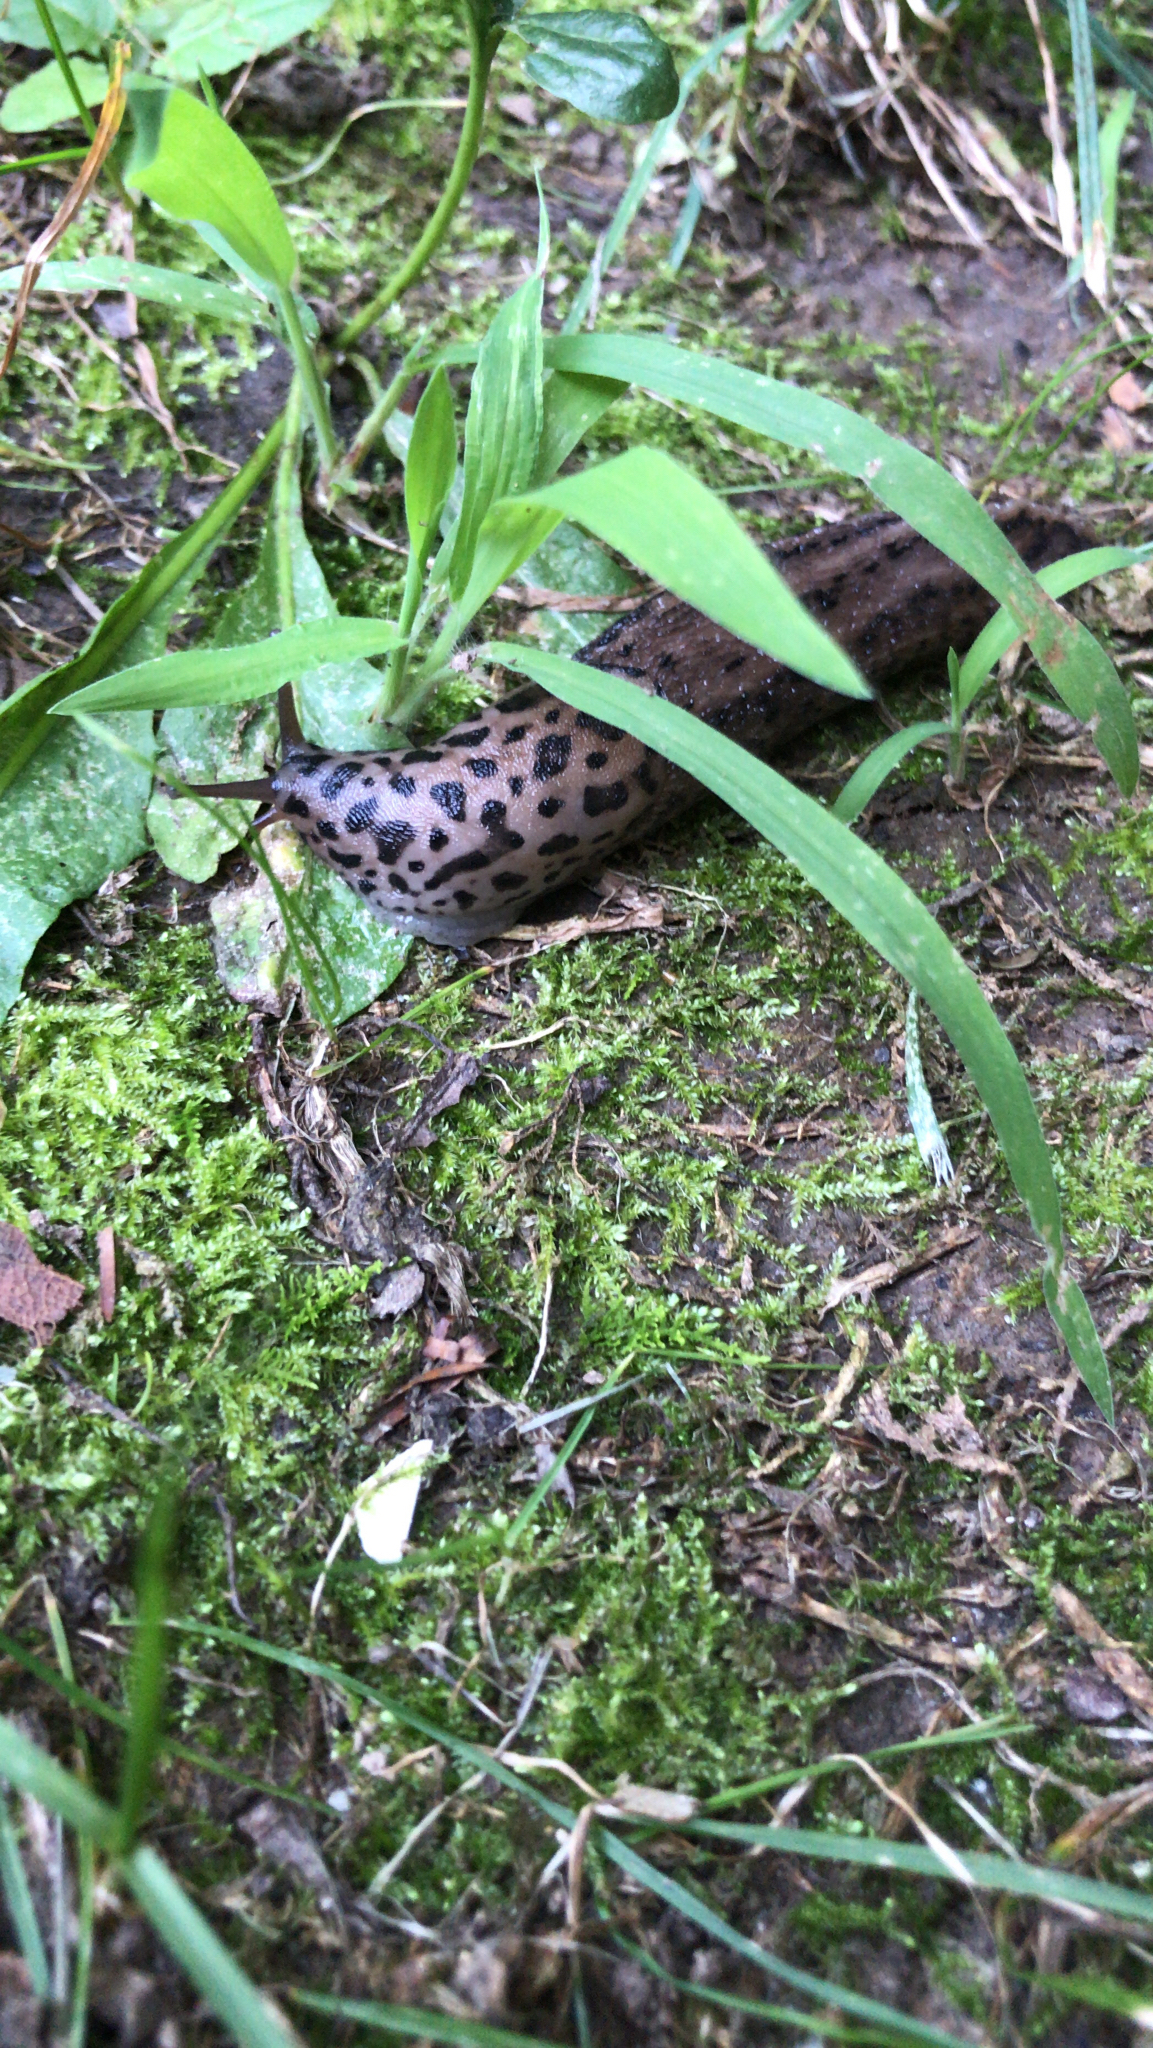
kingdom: Animalia
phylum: Mollusca
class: Gastropoda
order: Stylommatophora
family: Limacidae
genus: Limax
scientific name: Limax maximus
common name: Great grey slug
